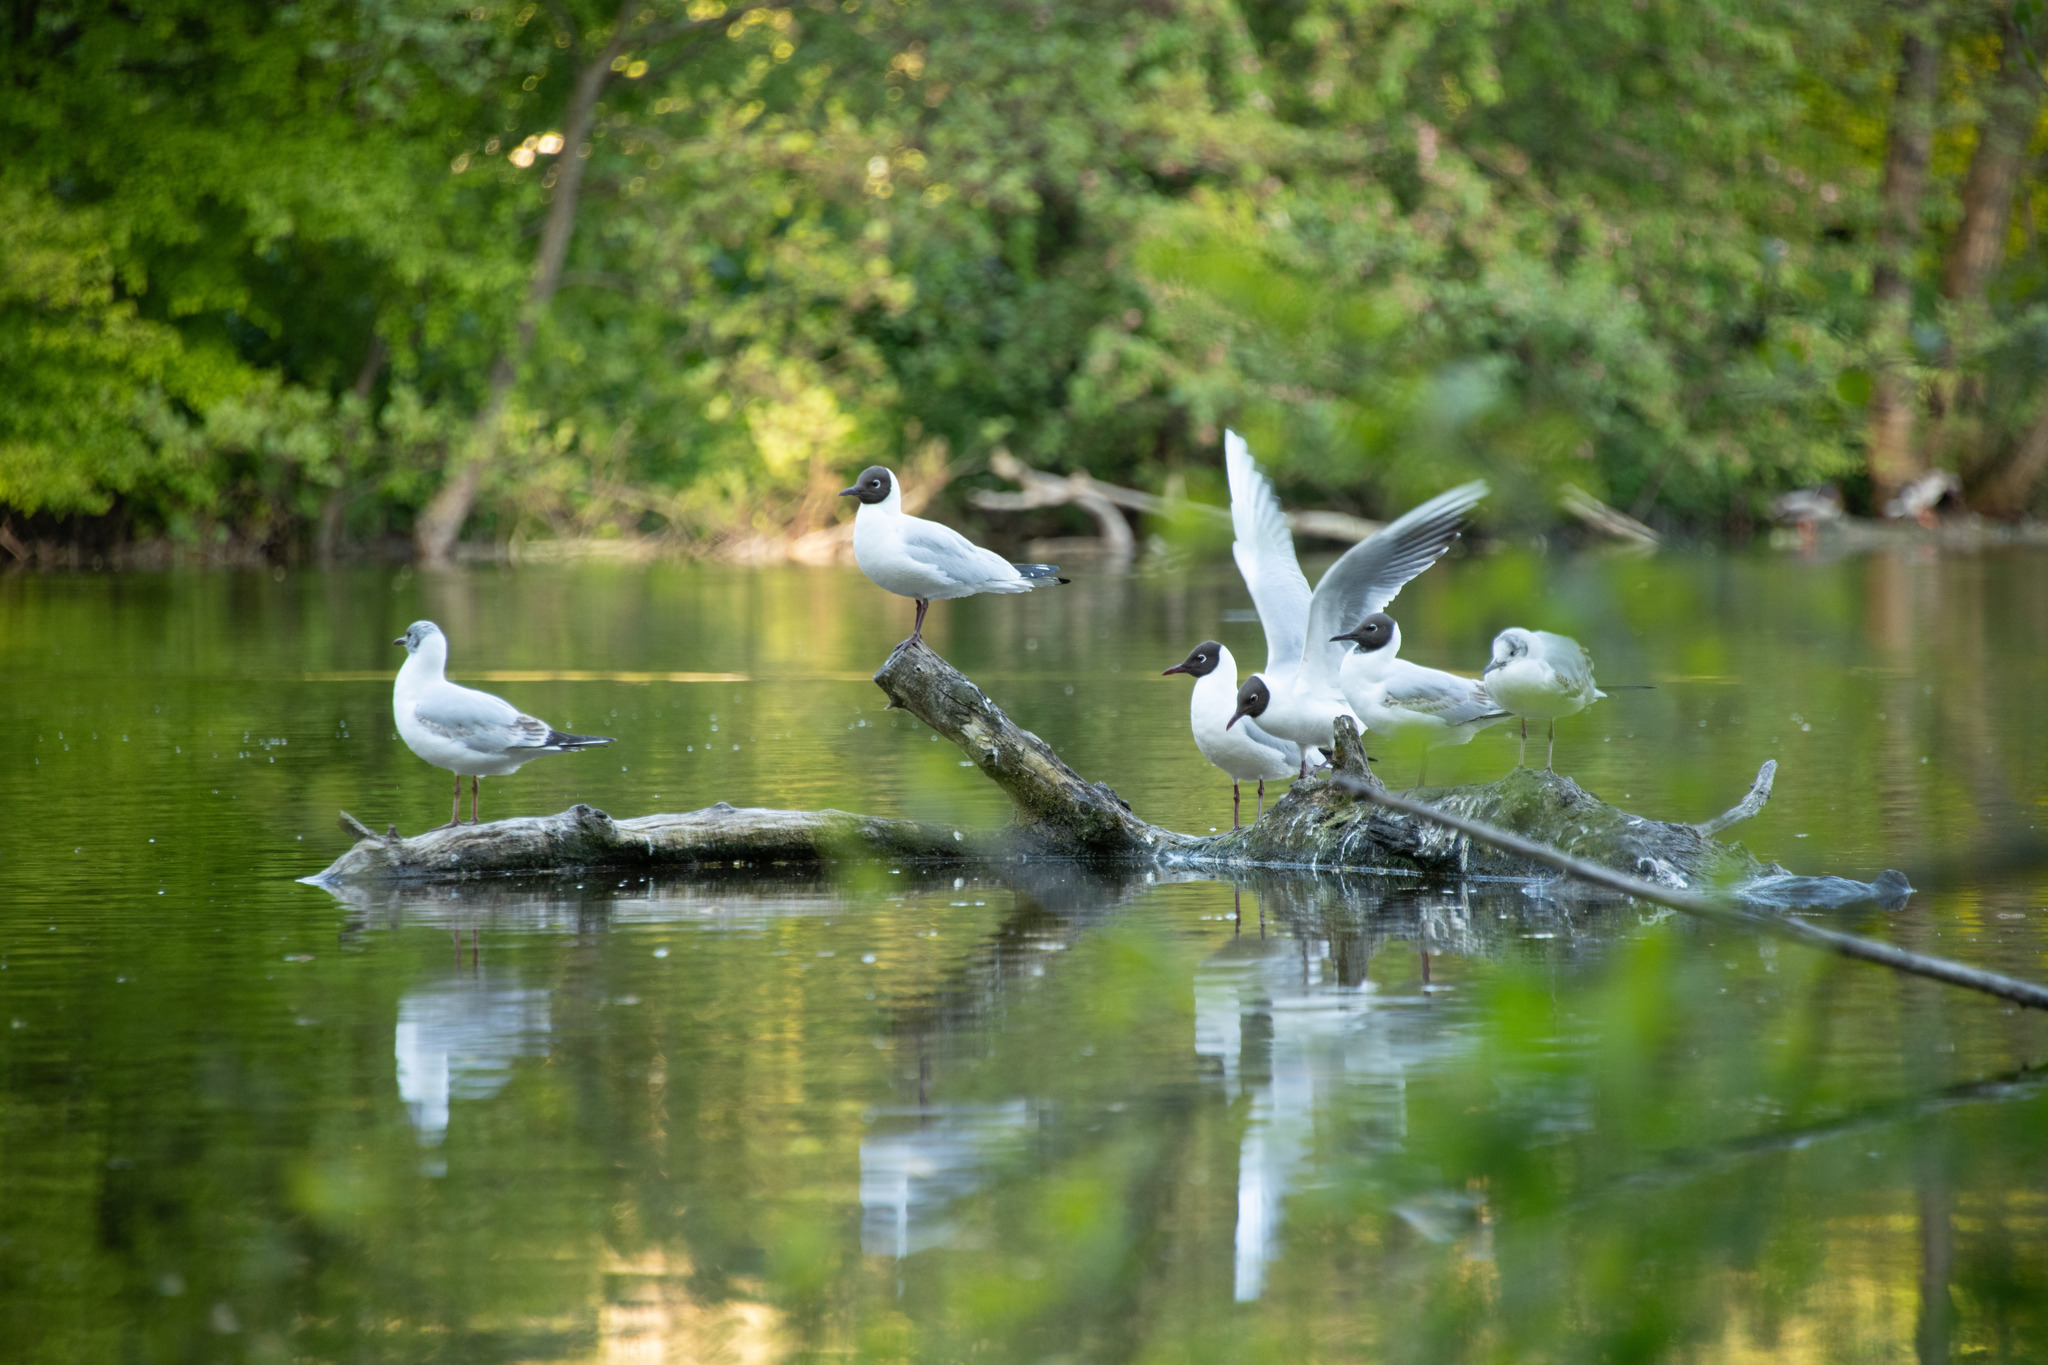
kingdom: Animalia
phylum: Chordata
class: Aves
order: Charadriiformes
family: Laridae
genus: Chroicocephalus
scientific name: Chroicocephalus ridibundus
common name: Black-headed gull
